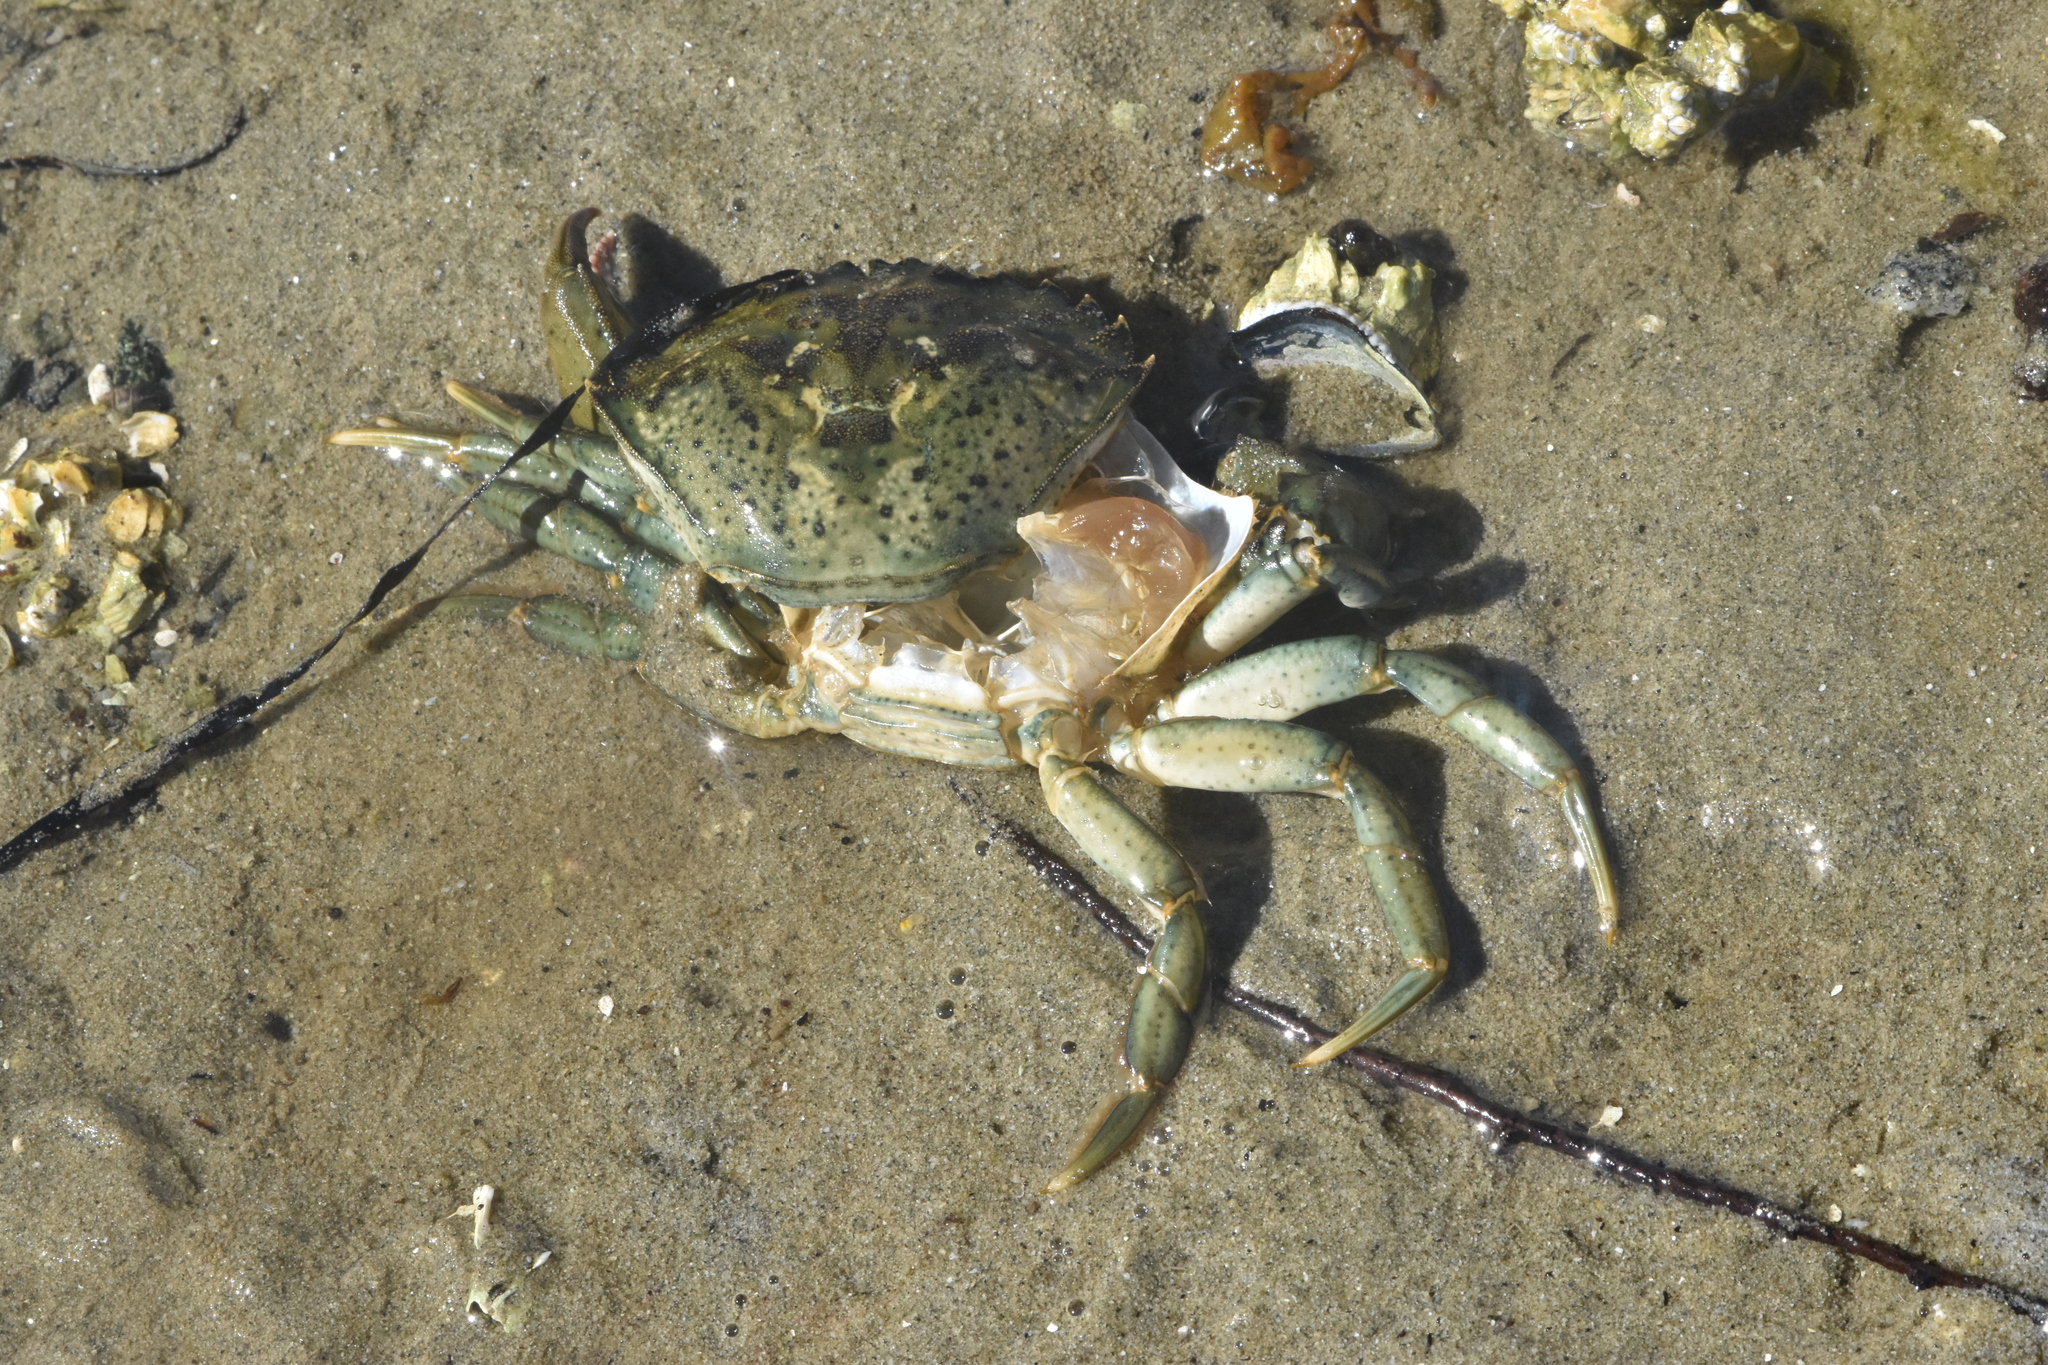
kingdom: Animalia
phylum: Arthropoda
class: Malacostraca
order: Decapoda
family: Carcinidae
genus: Carcinus
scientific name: Carcinus maenas
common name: European green crab
